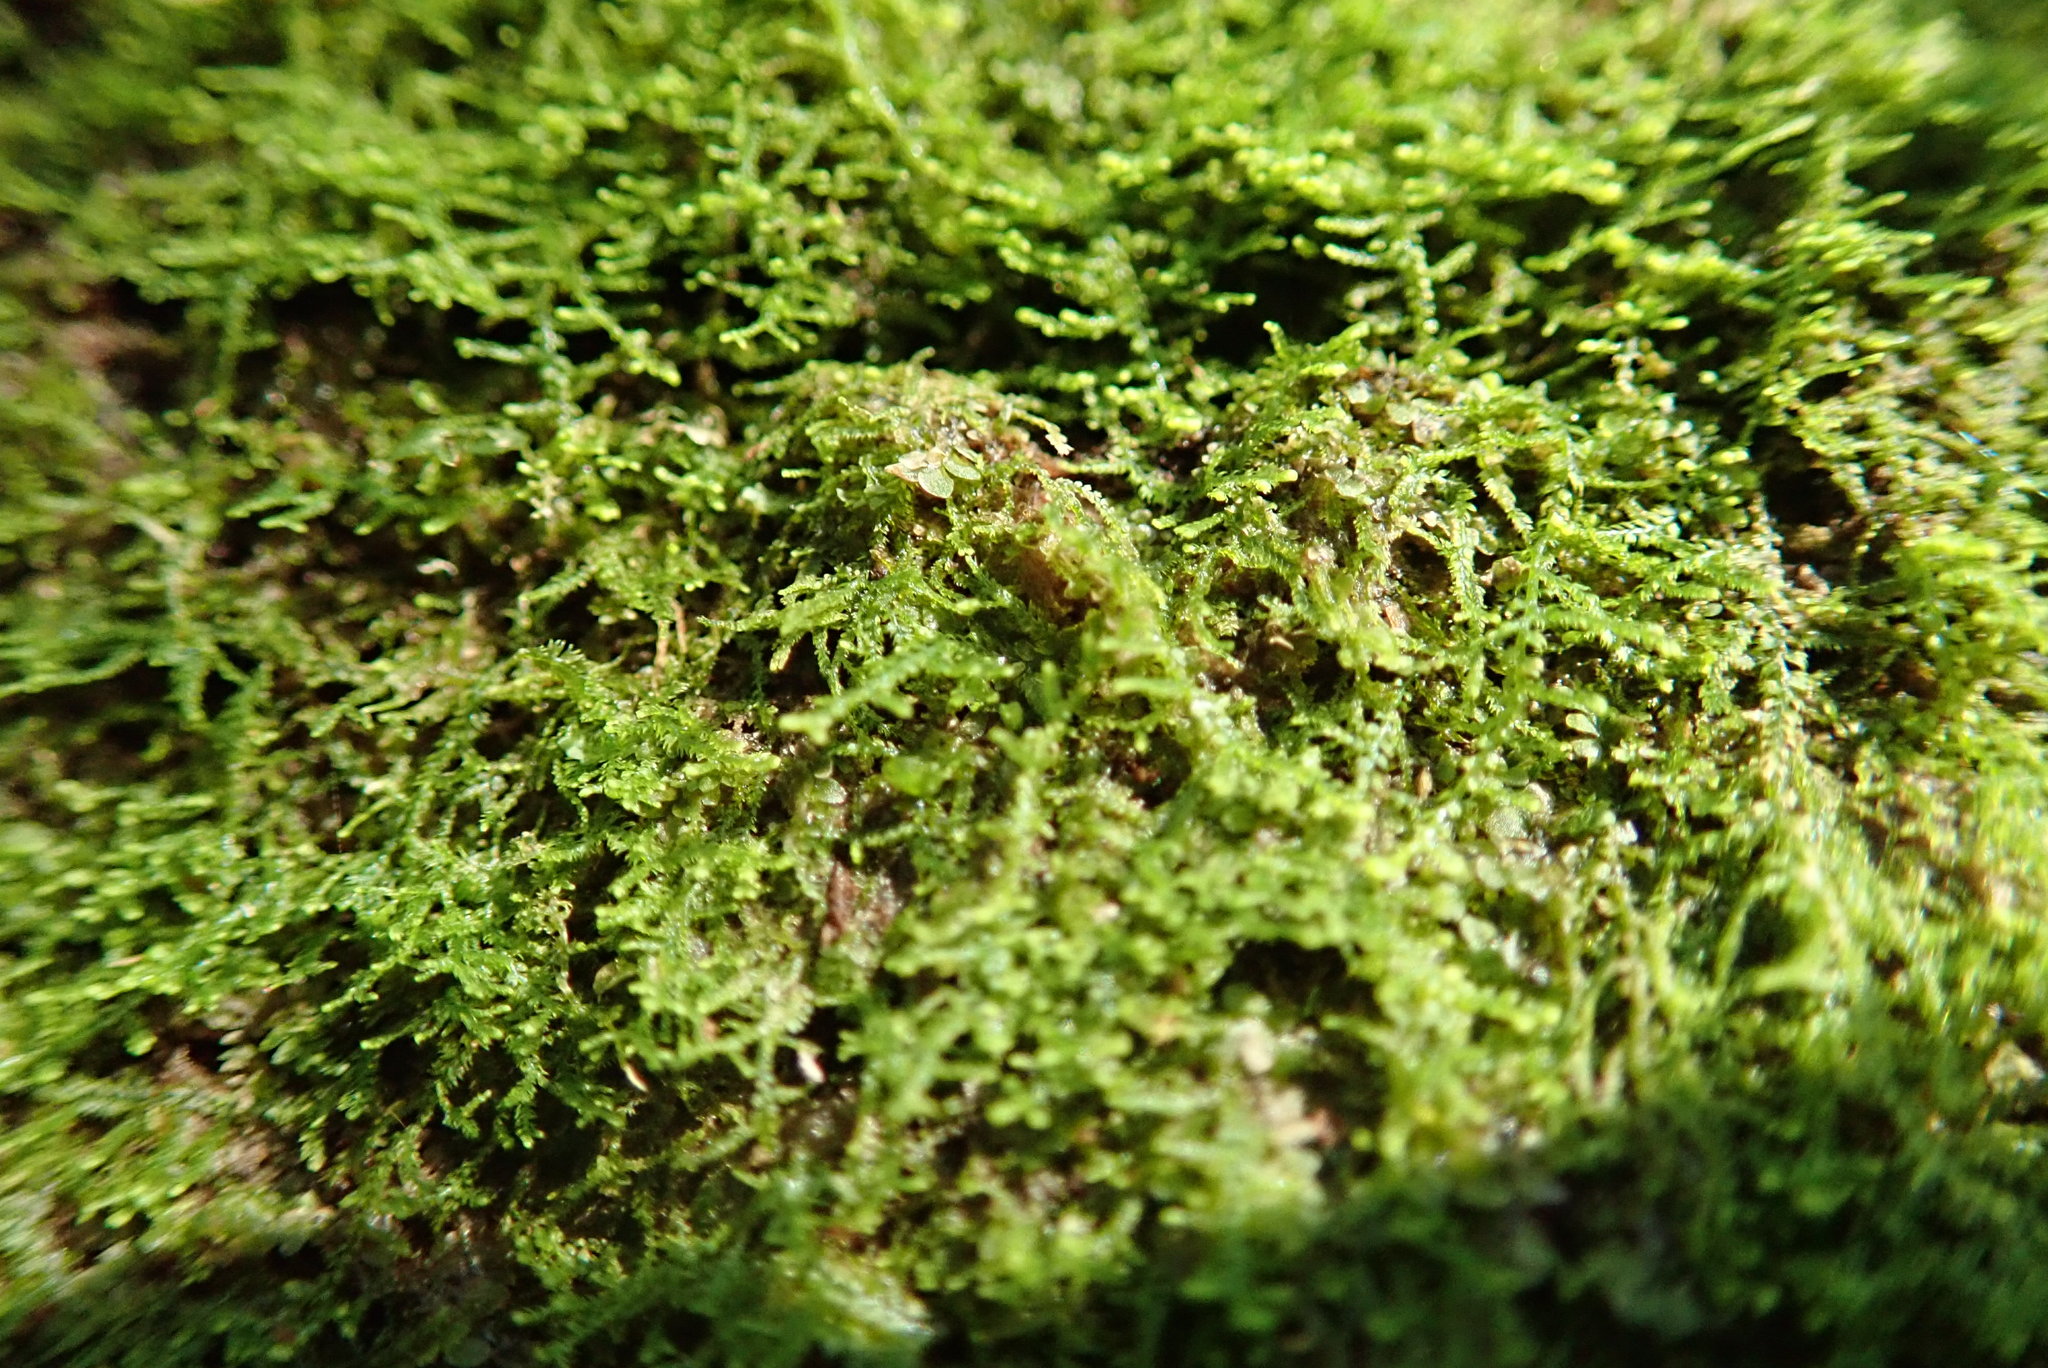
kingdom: Plantae
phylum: Marchantiophyta
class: Jungermanniopsida
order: Jungermanniales
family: Lepidoziaceae
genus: Lepidozia
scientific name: Lepidozia reptans
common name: Creeping fingerwort
